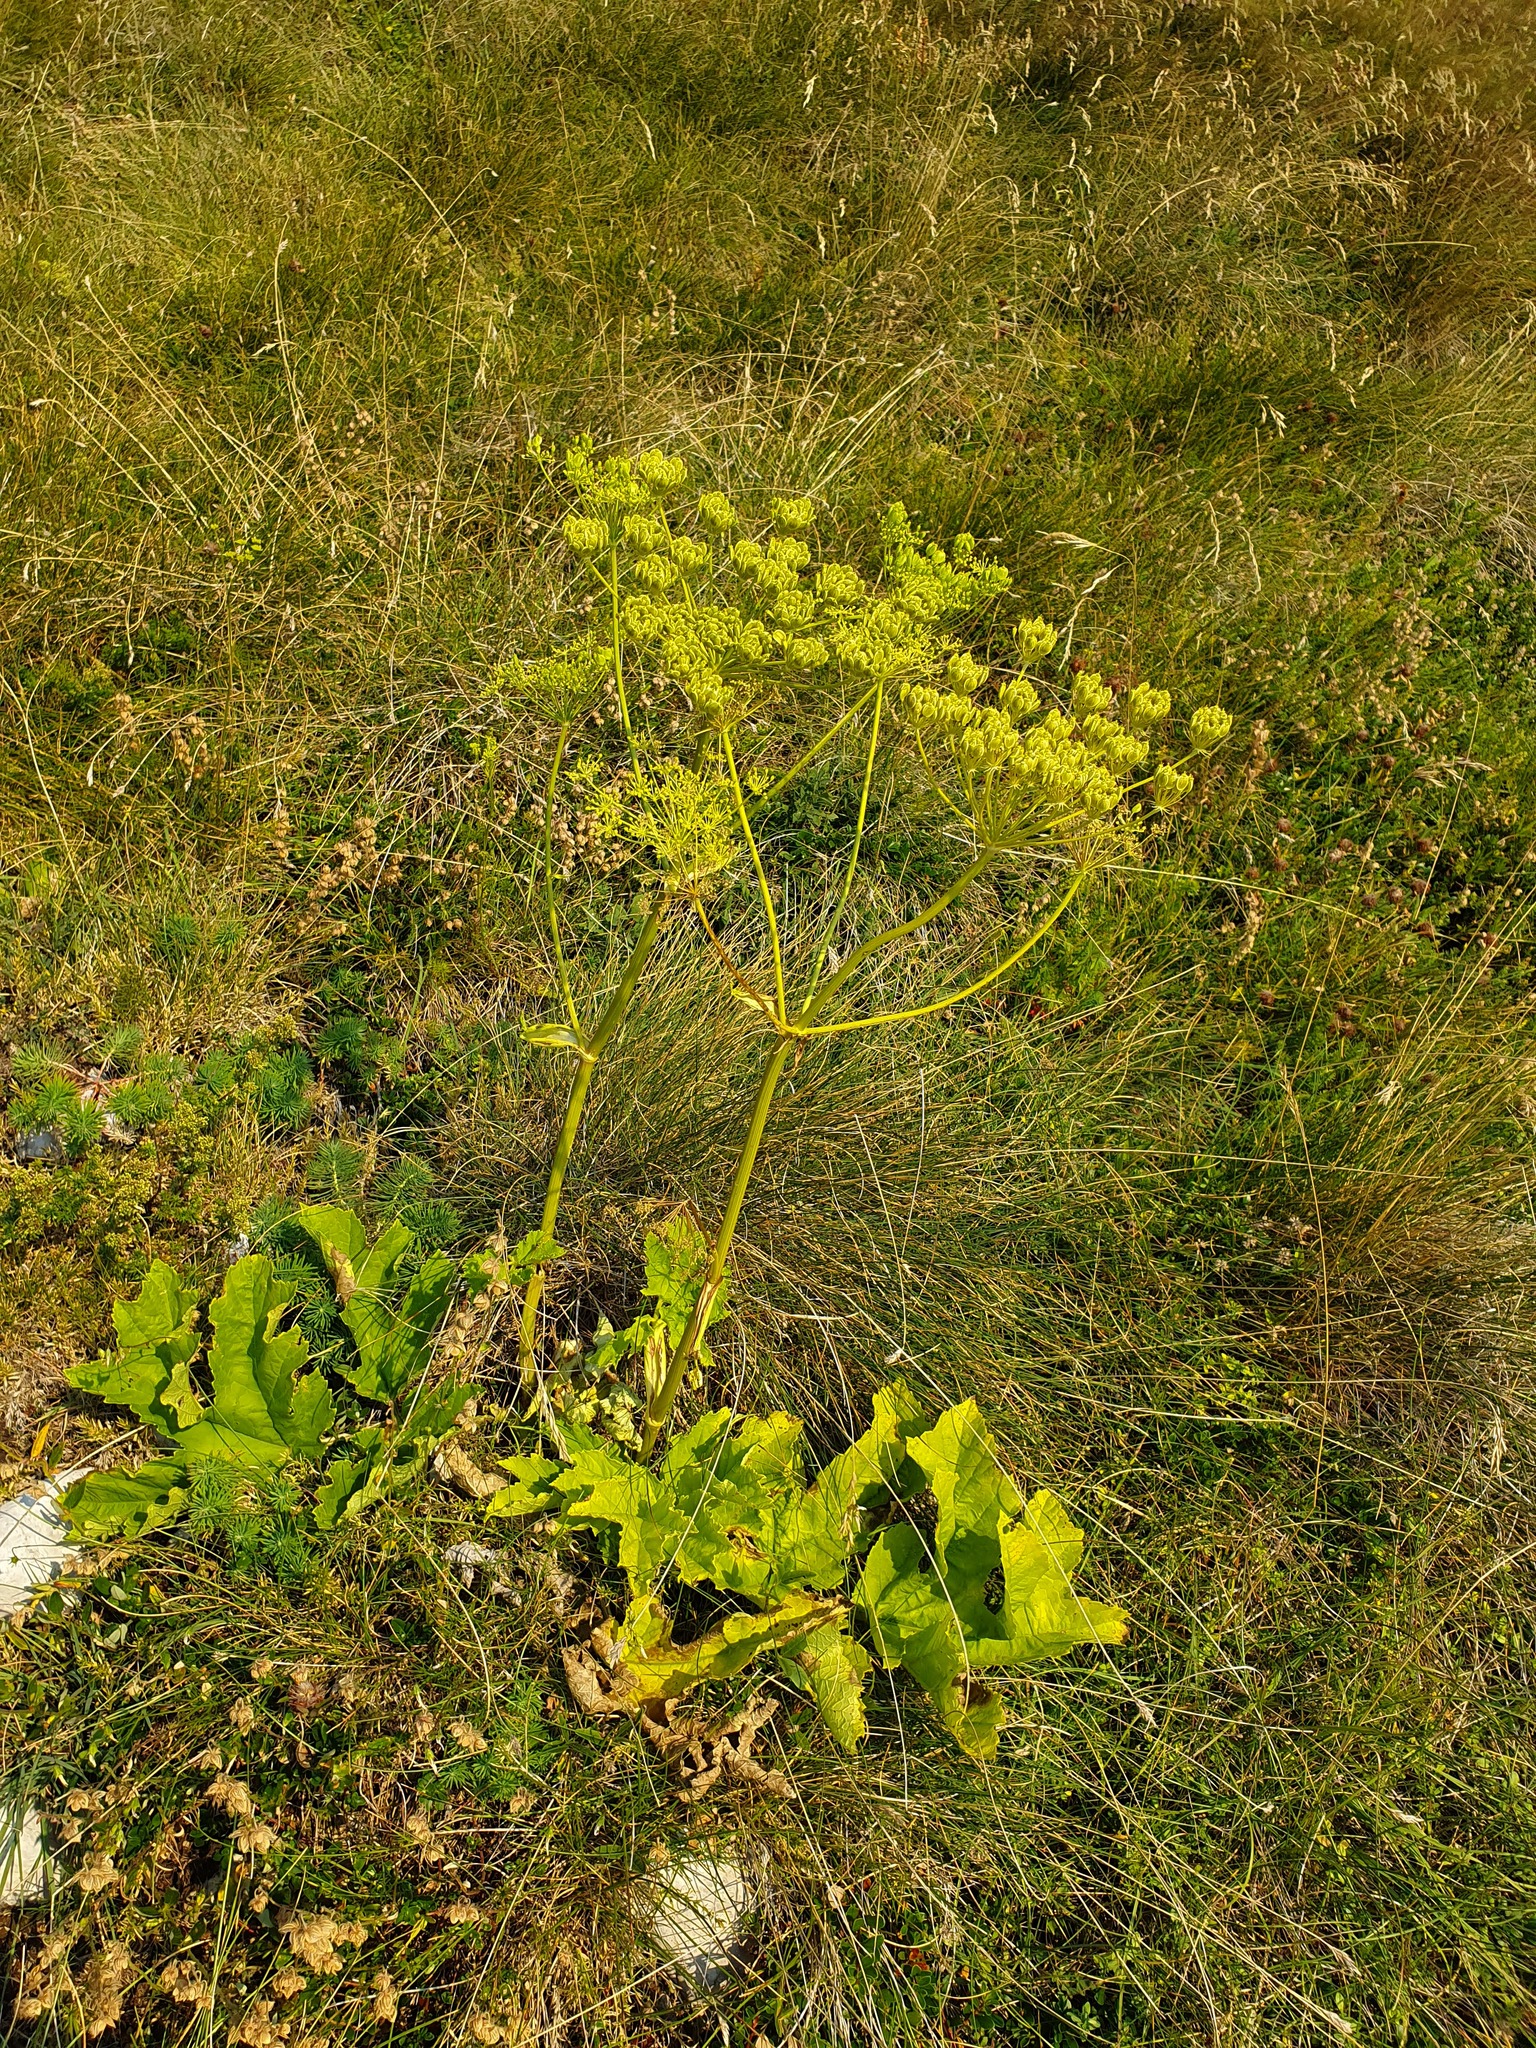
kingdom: Plantae
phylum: Tracheophyta
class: Magnoliopsida
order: Apiales
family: Apiaceae
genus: Heracleum
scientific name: Heracleum sphondylium
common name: Hogweed
